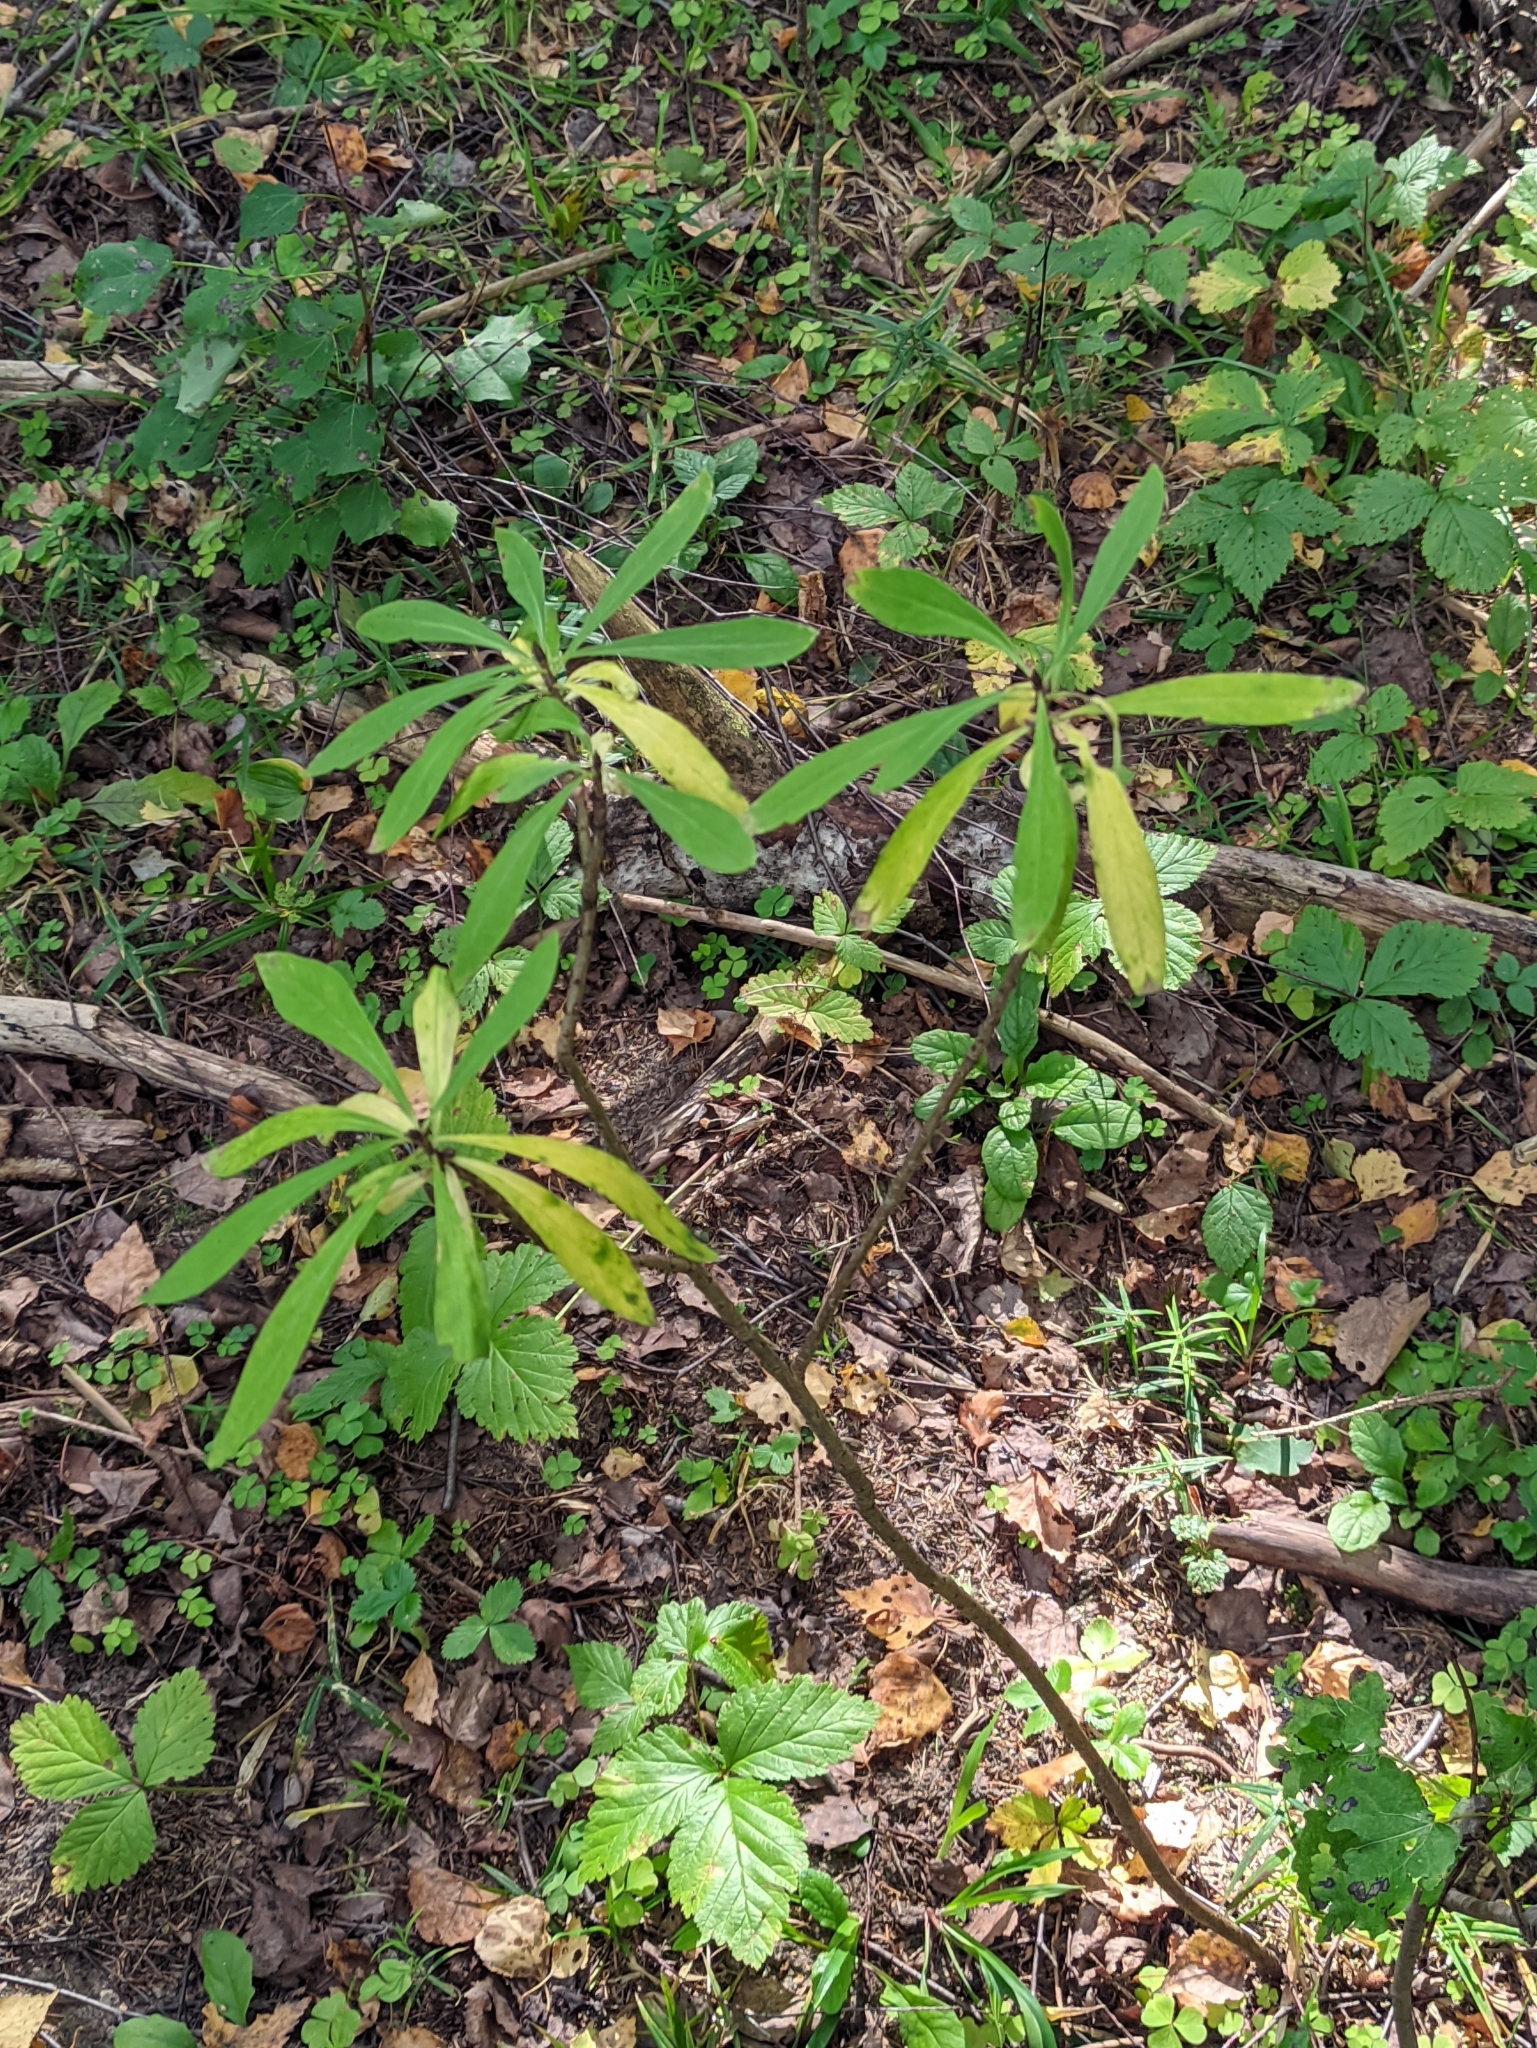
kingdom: Plantae
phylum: Tracheophyta
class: Magnoliopsida
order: Malvales
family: Thymelaeaceae
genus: Daphne
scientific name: Daphne mezereum
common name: Mezereon
